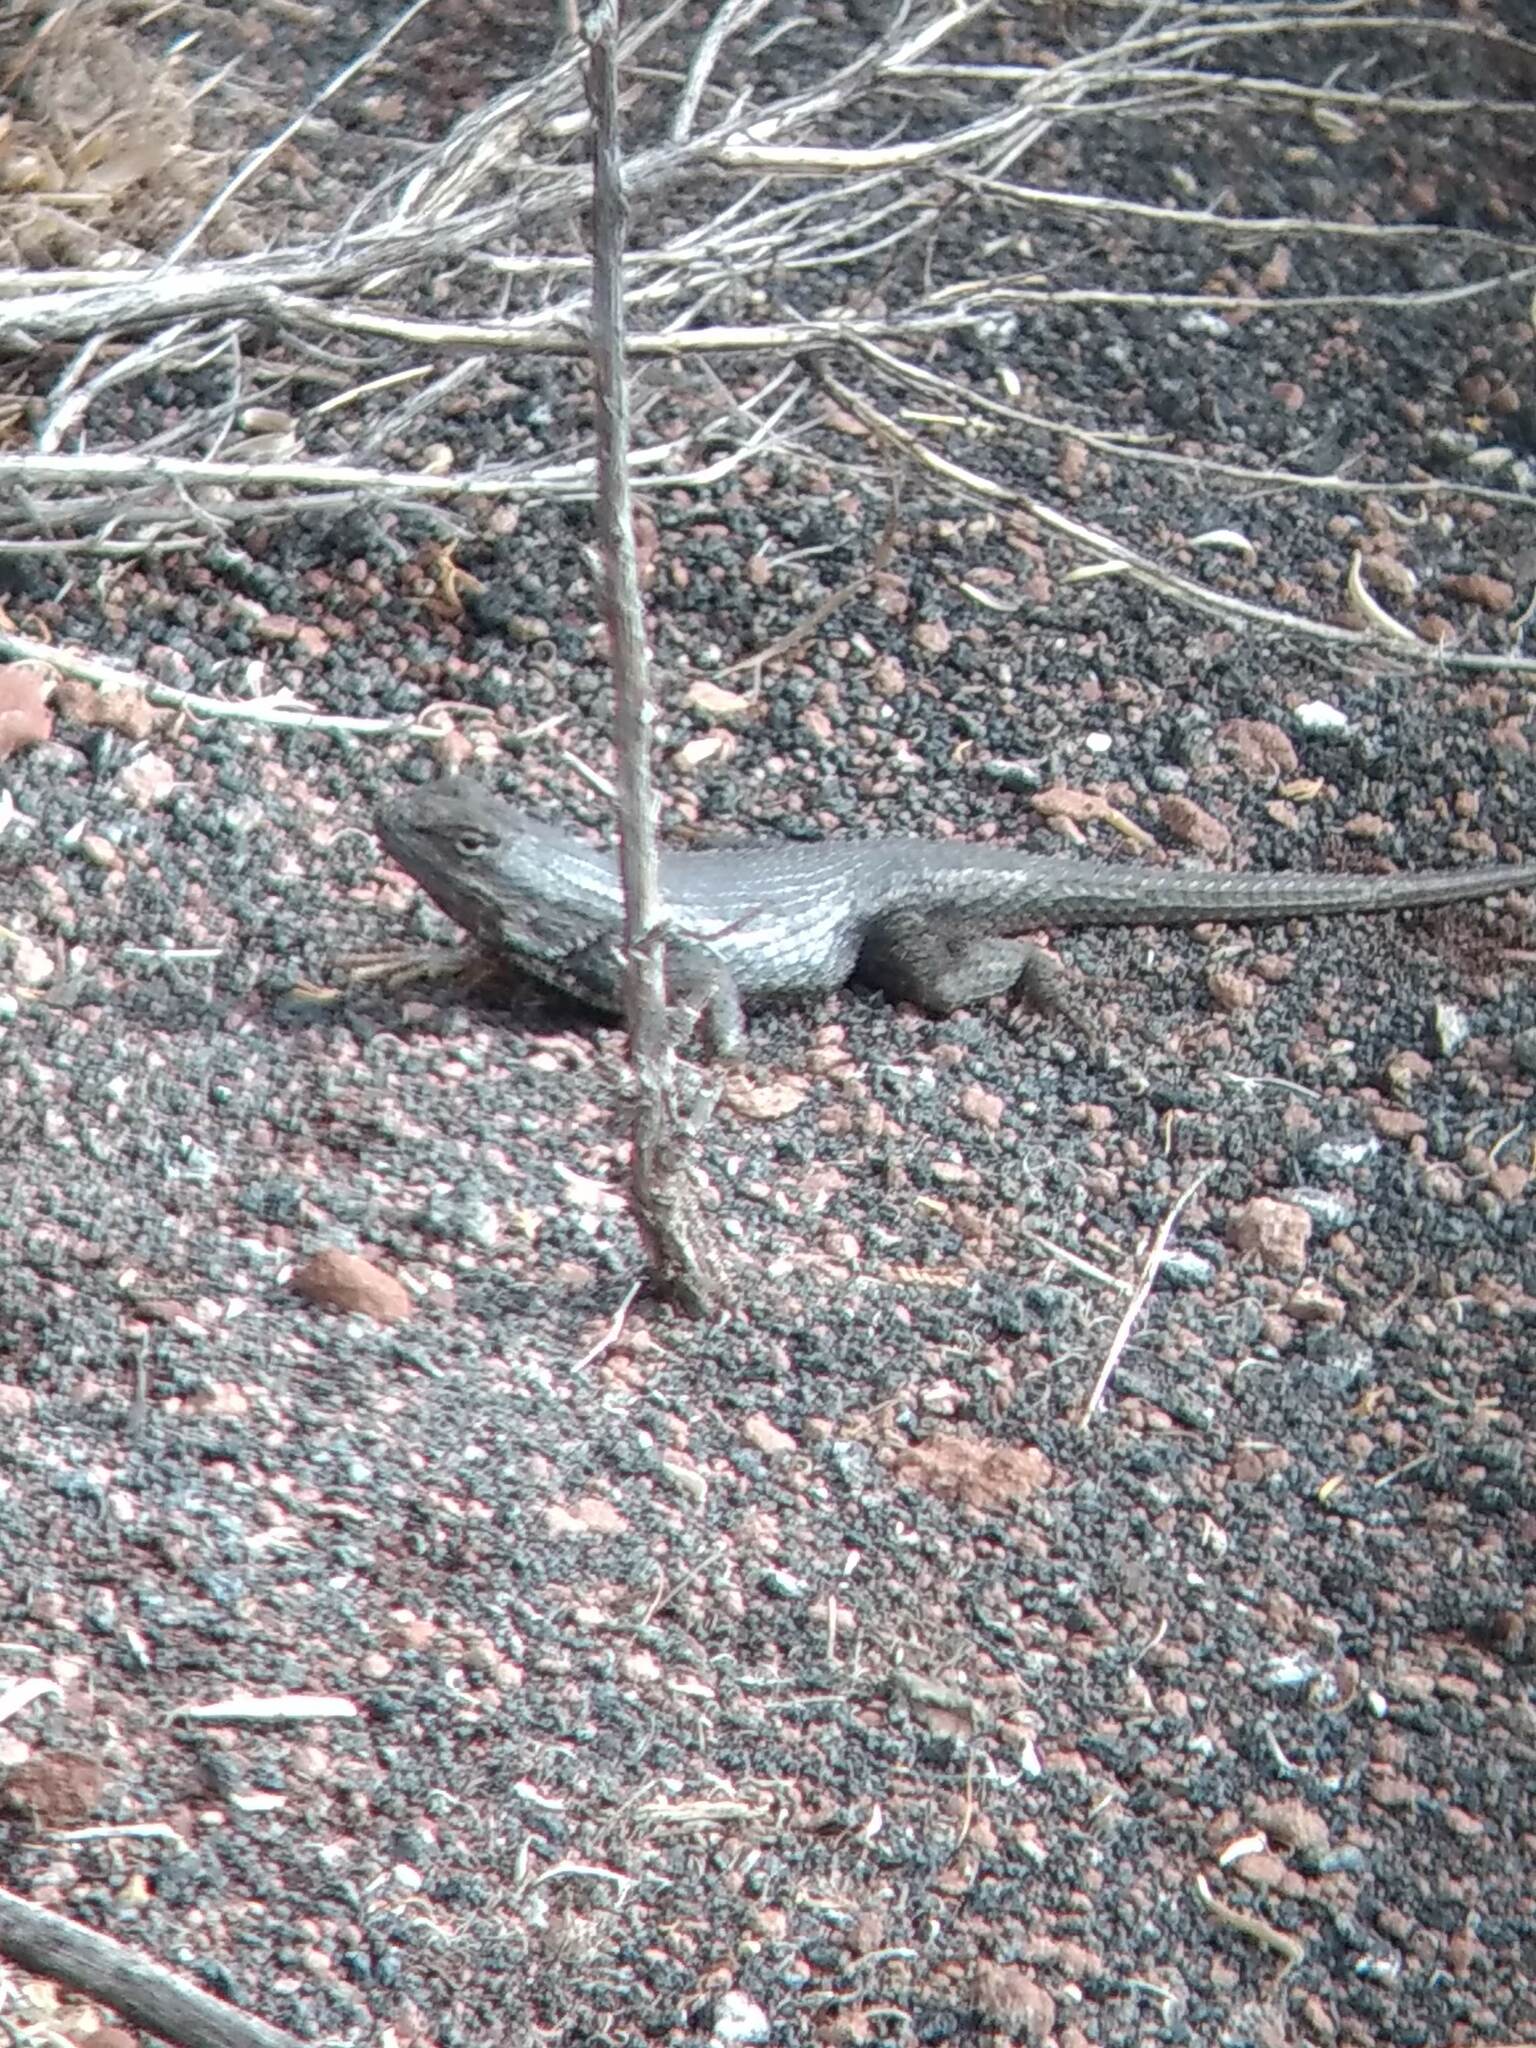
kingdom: Animalia
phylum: Chordata
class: Squamata
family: Phrynosomatidae
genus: Sceloporus
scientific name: Sceloporus tristichus
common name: Plateau fence lizard
